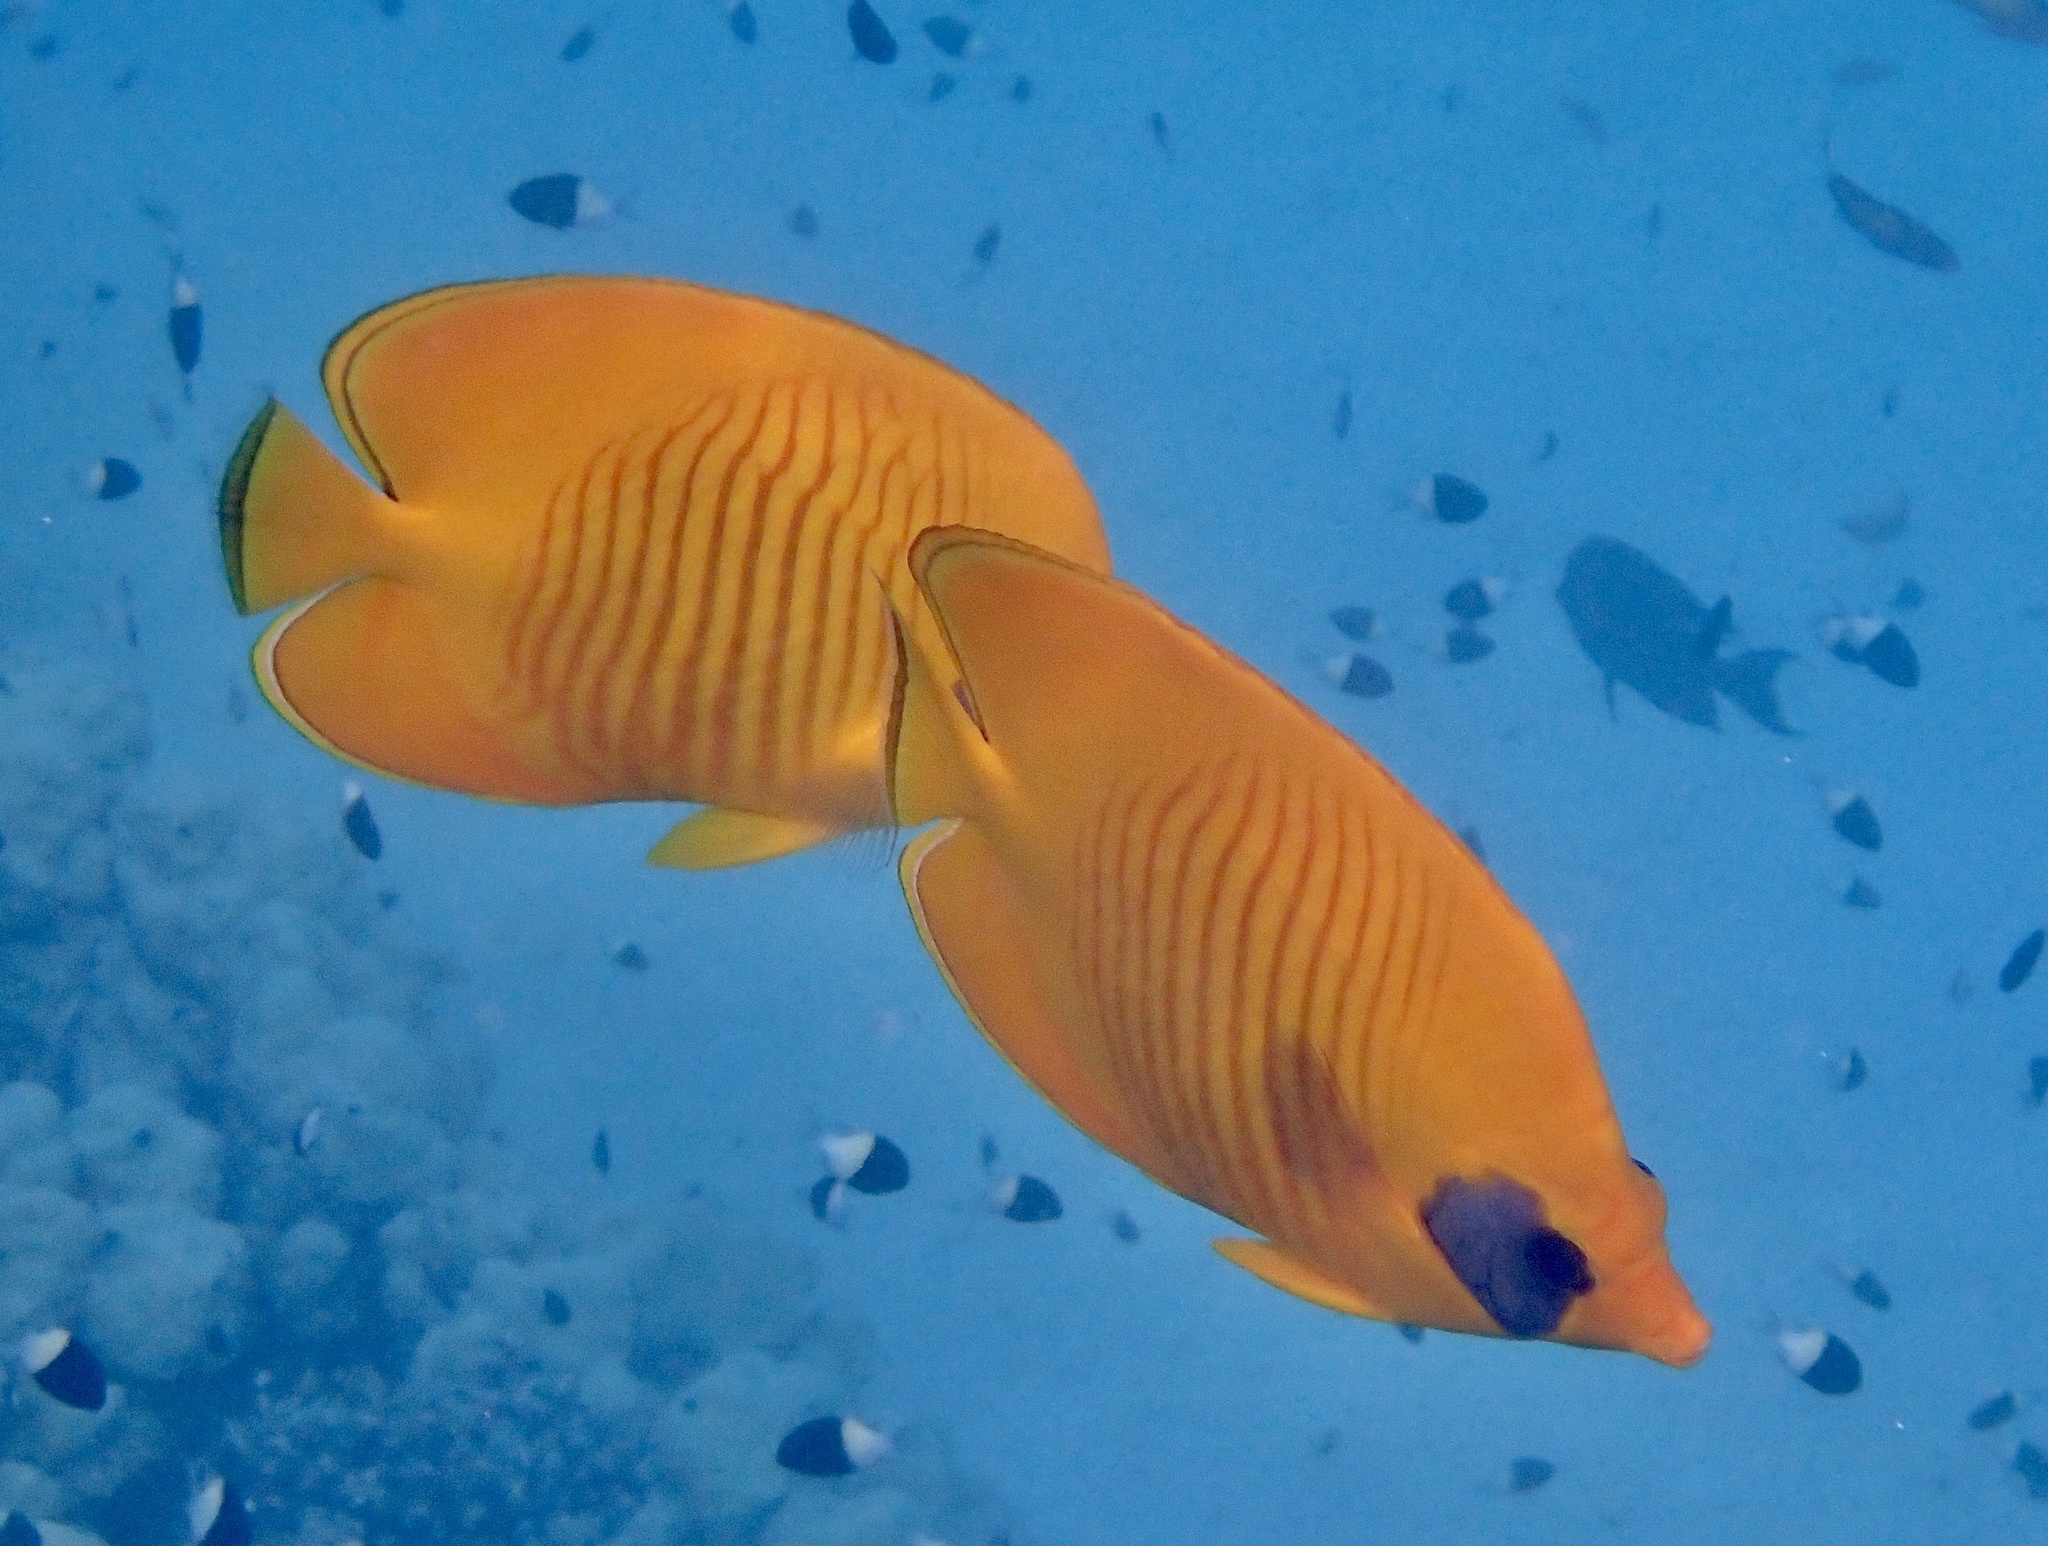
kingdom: Animalia
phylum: Chordata
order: Perciformes
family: Chaetodontidae
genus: Chaetodon
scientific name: Chaetodon semilarvatus
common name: Golden butterflyfish
